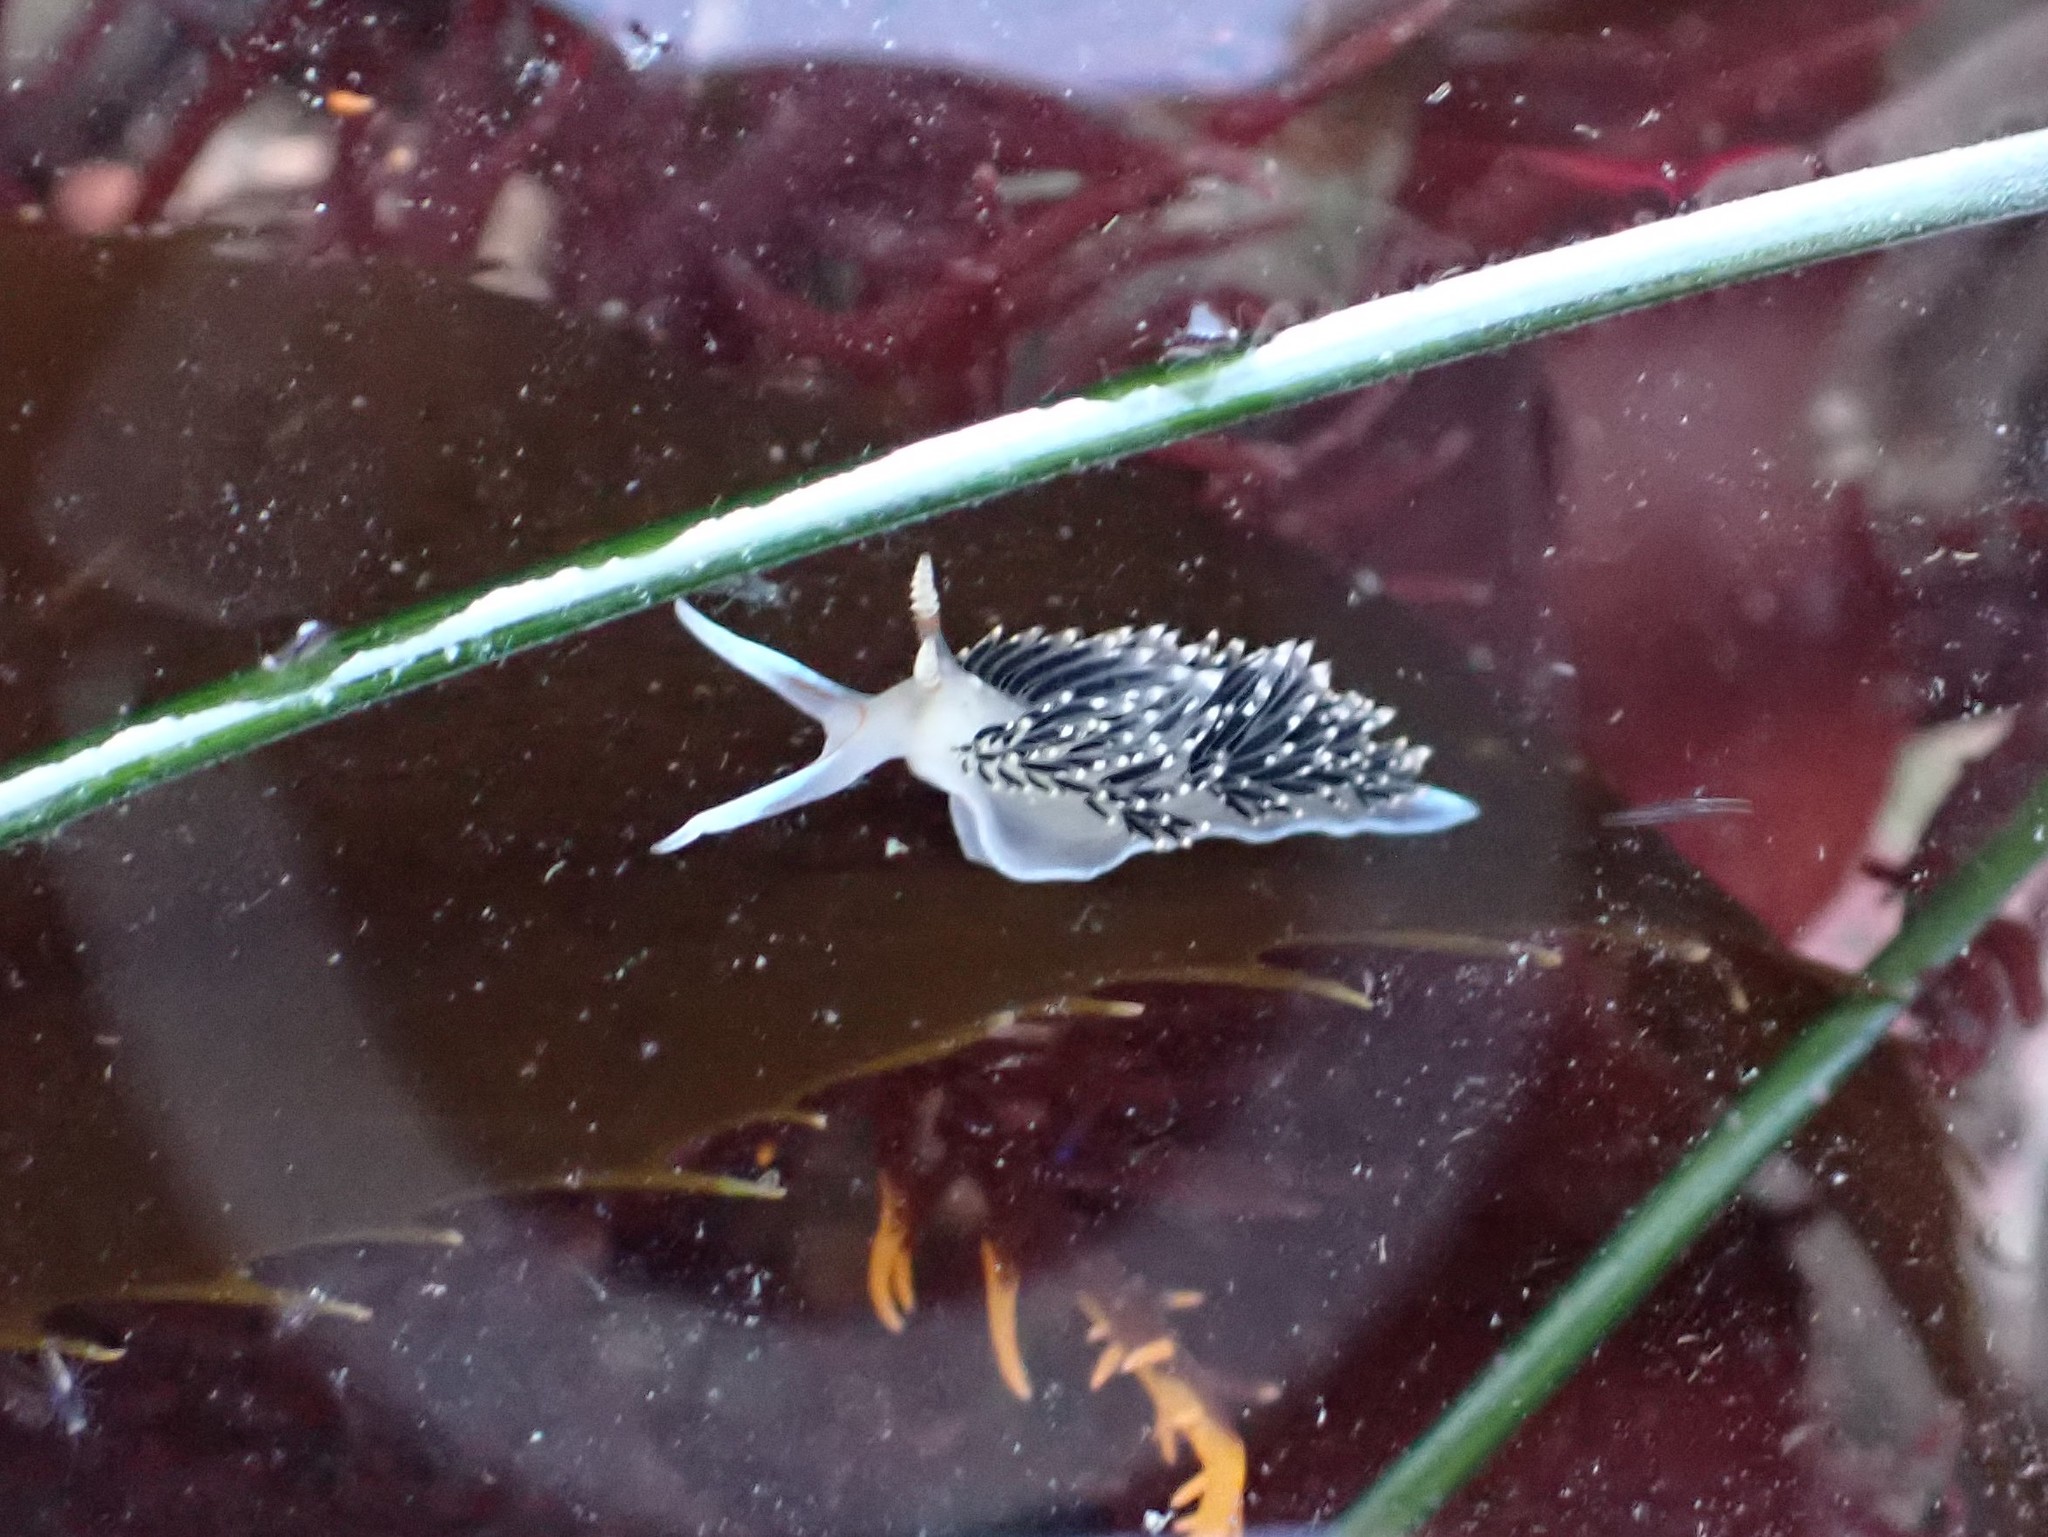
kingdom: Animalia
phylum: Mollusca
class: Gastropoda
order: Nudibranchia
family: Facelinidae
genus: Phidiana
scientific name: Phidiana hiltoni
